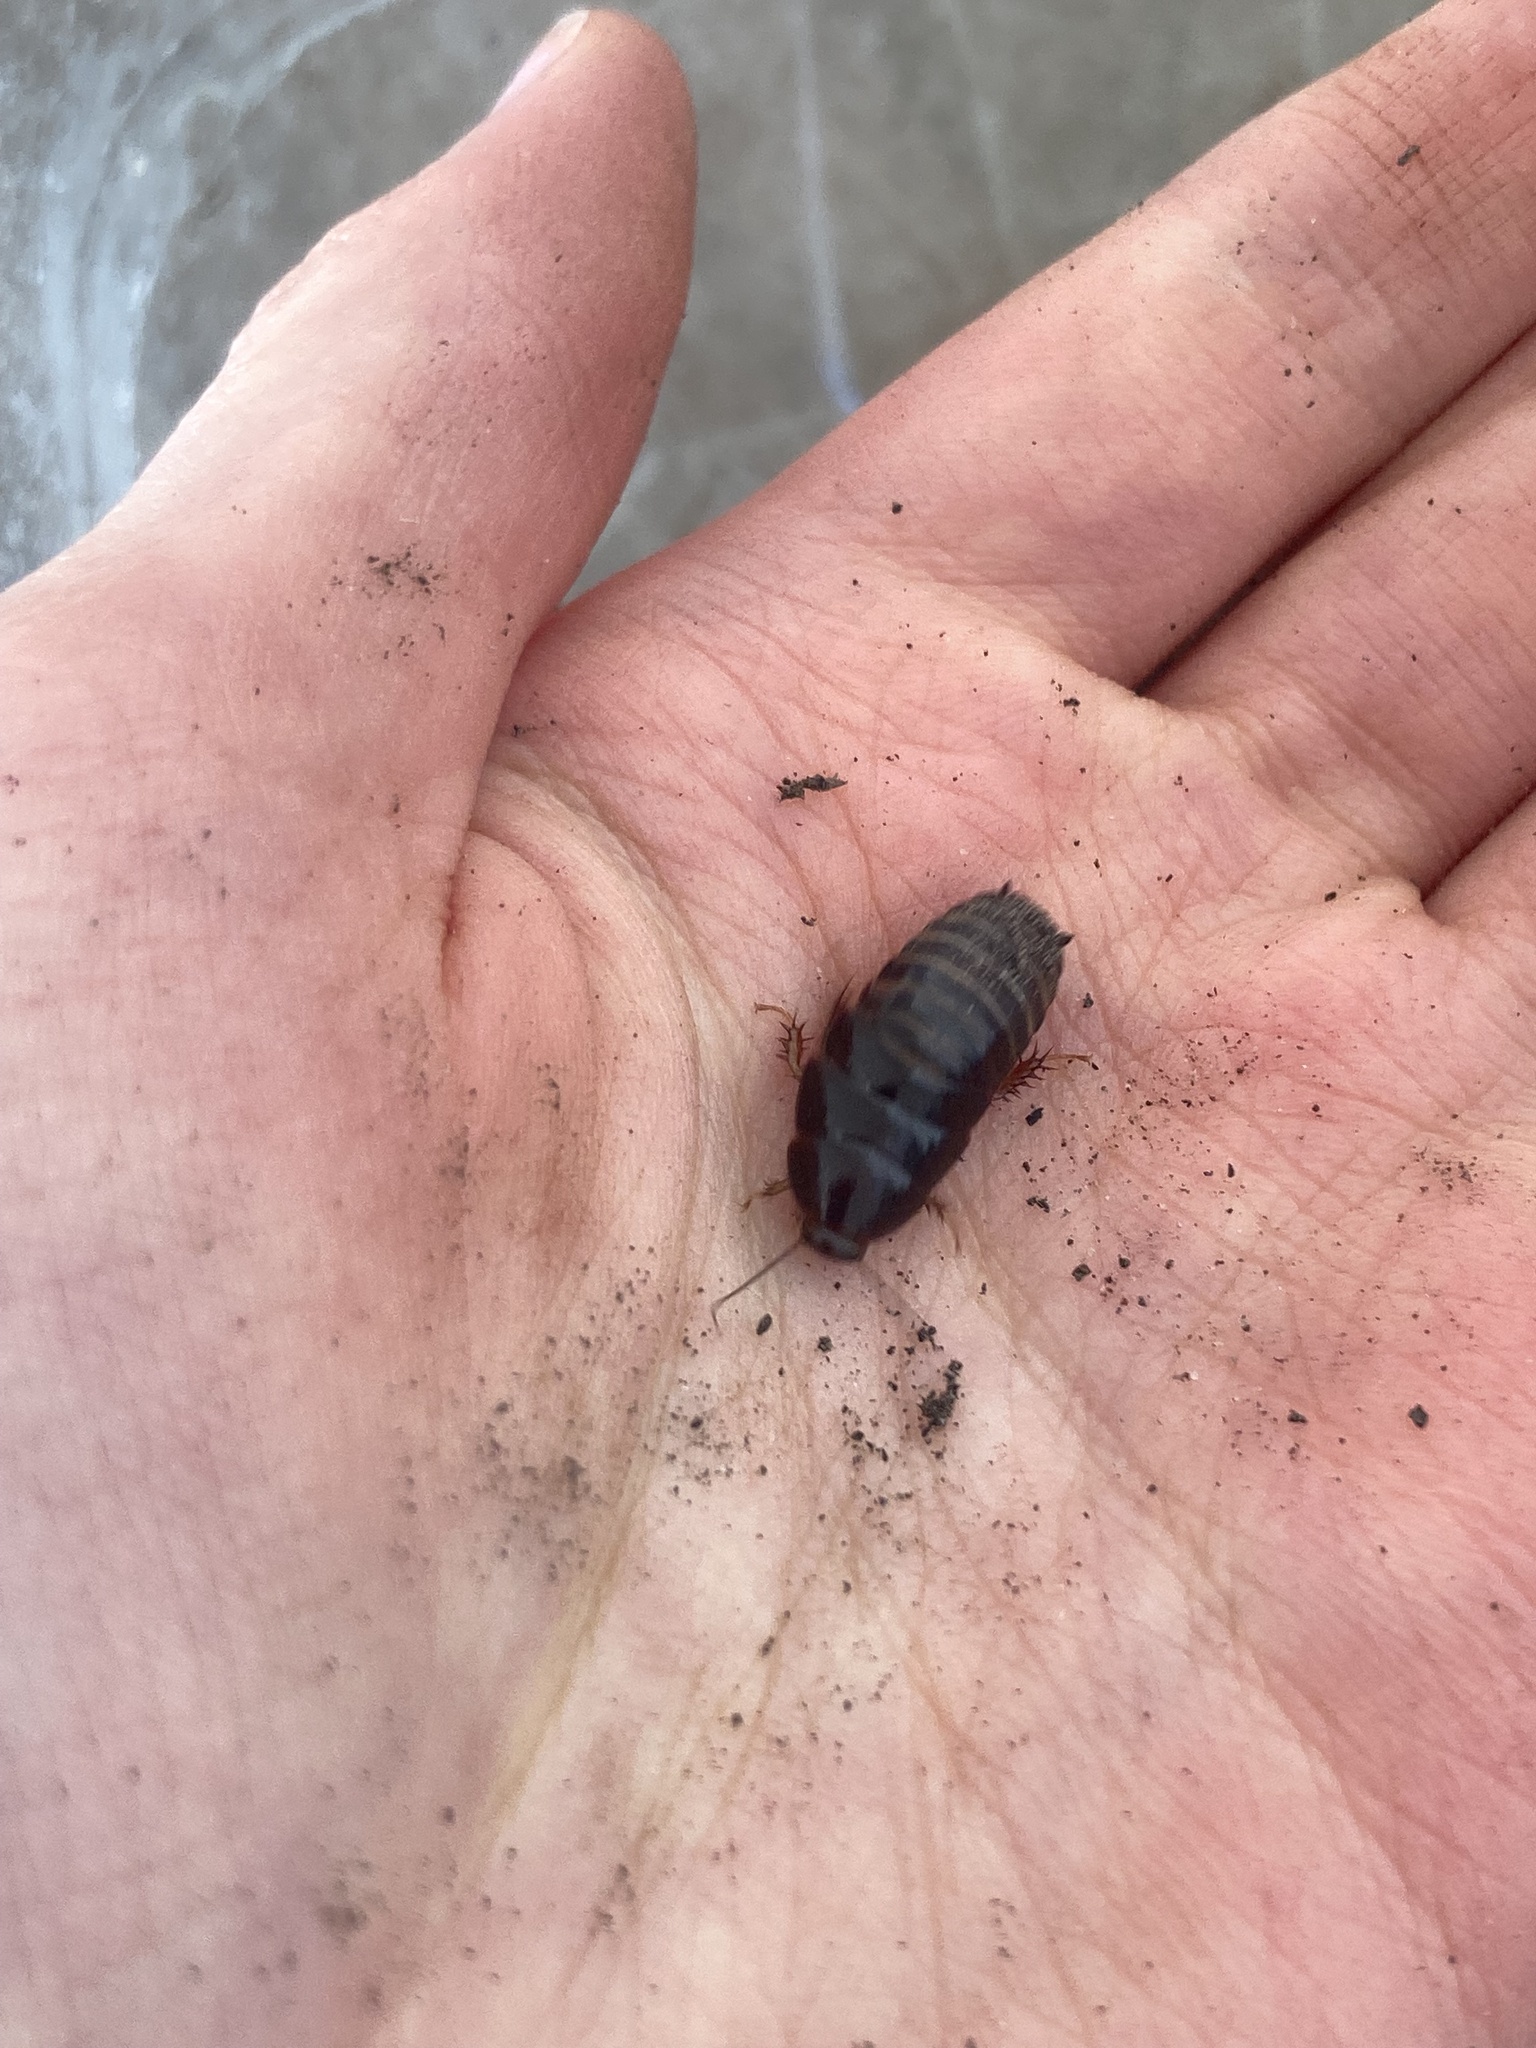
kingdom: Animalia
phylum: Arthropoda
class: Insecta
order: Blattodea
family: Blaberidae
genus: Pycnoscelus
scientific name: Pycnoscelus surinamensis
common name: Surinam cockroach
